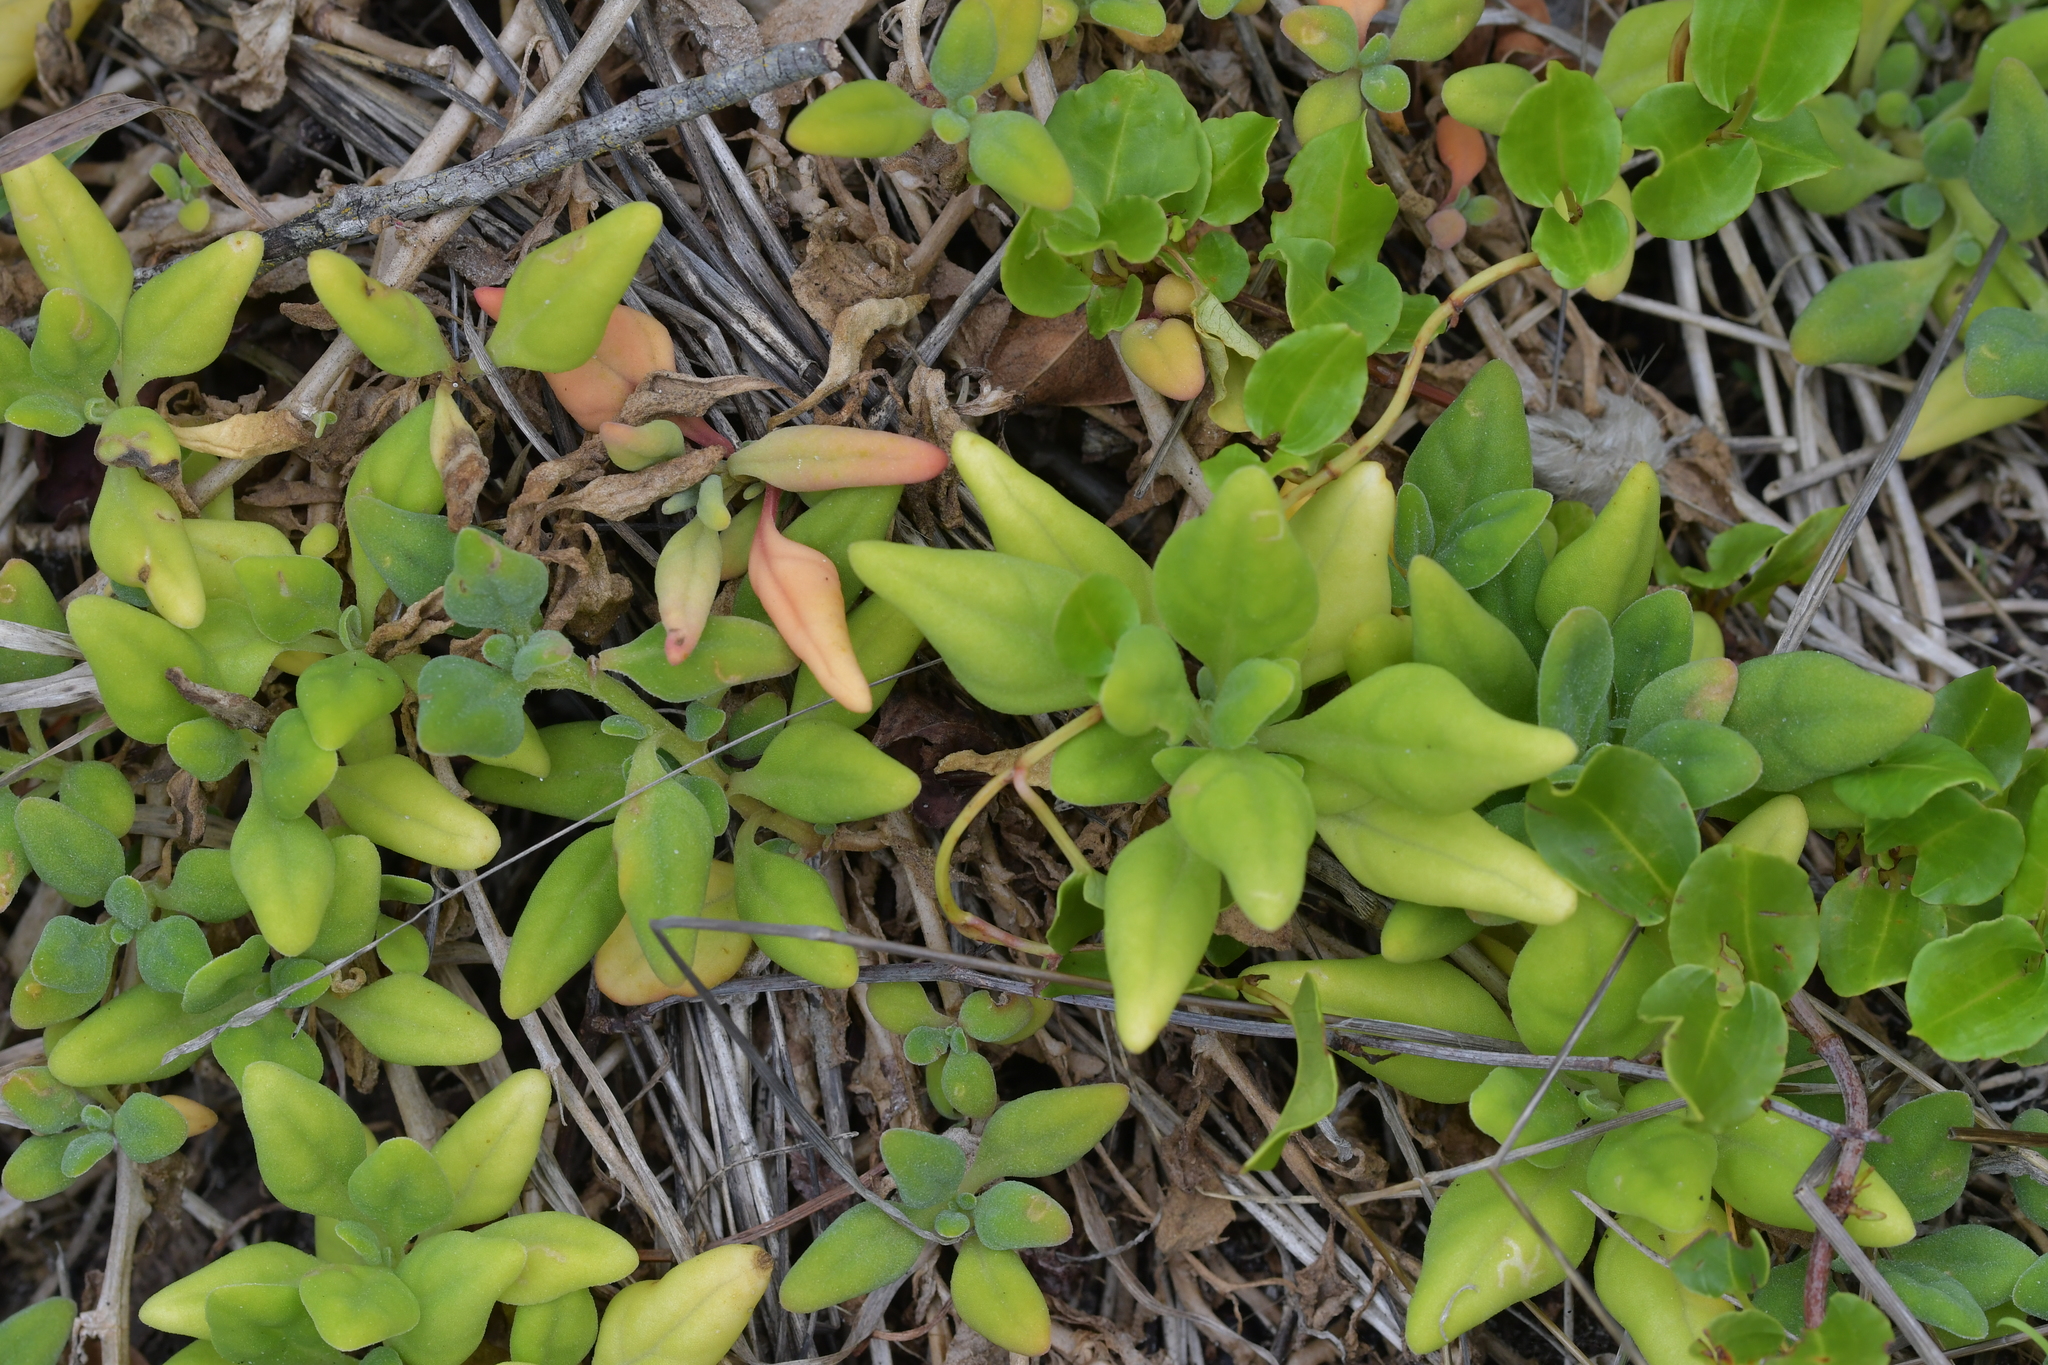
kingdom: Plantae
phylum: Tracheophyta
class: Magnoliopsida
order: Caryophyllales
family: Aizoaceae
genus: Tetragonia
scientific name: Tetragonia tetragonoides
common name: New zealand-spinach
